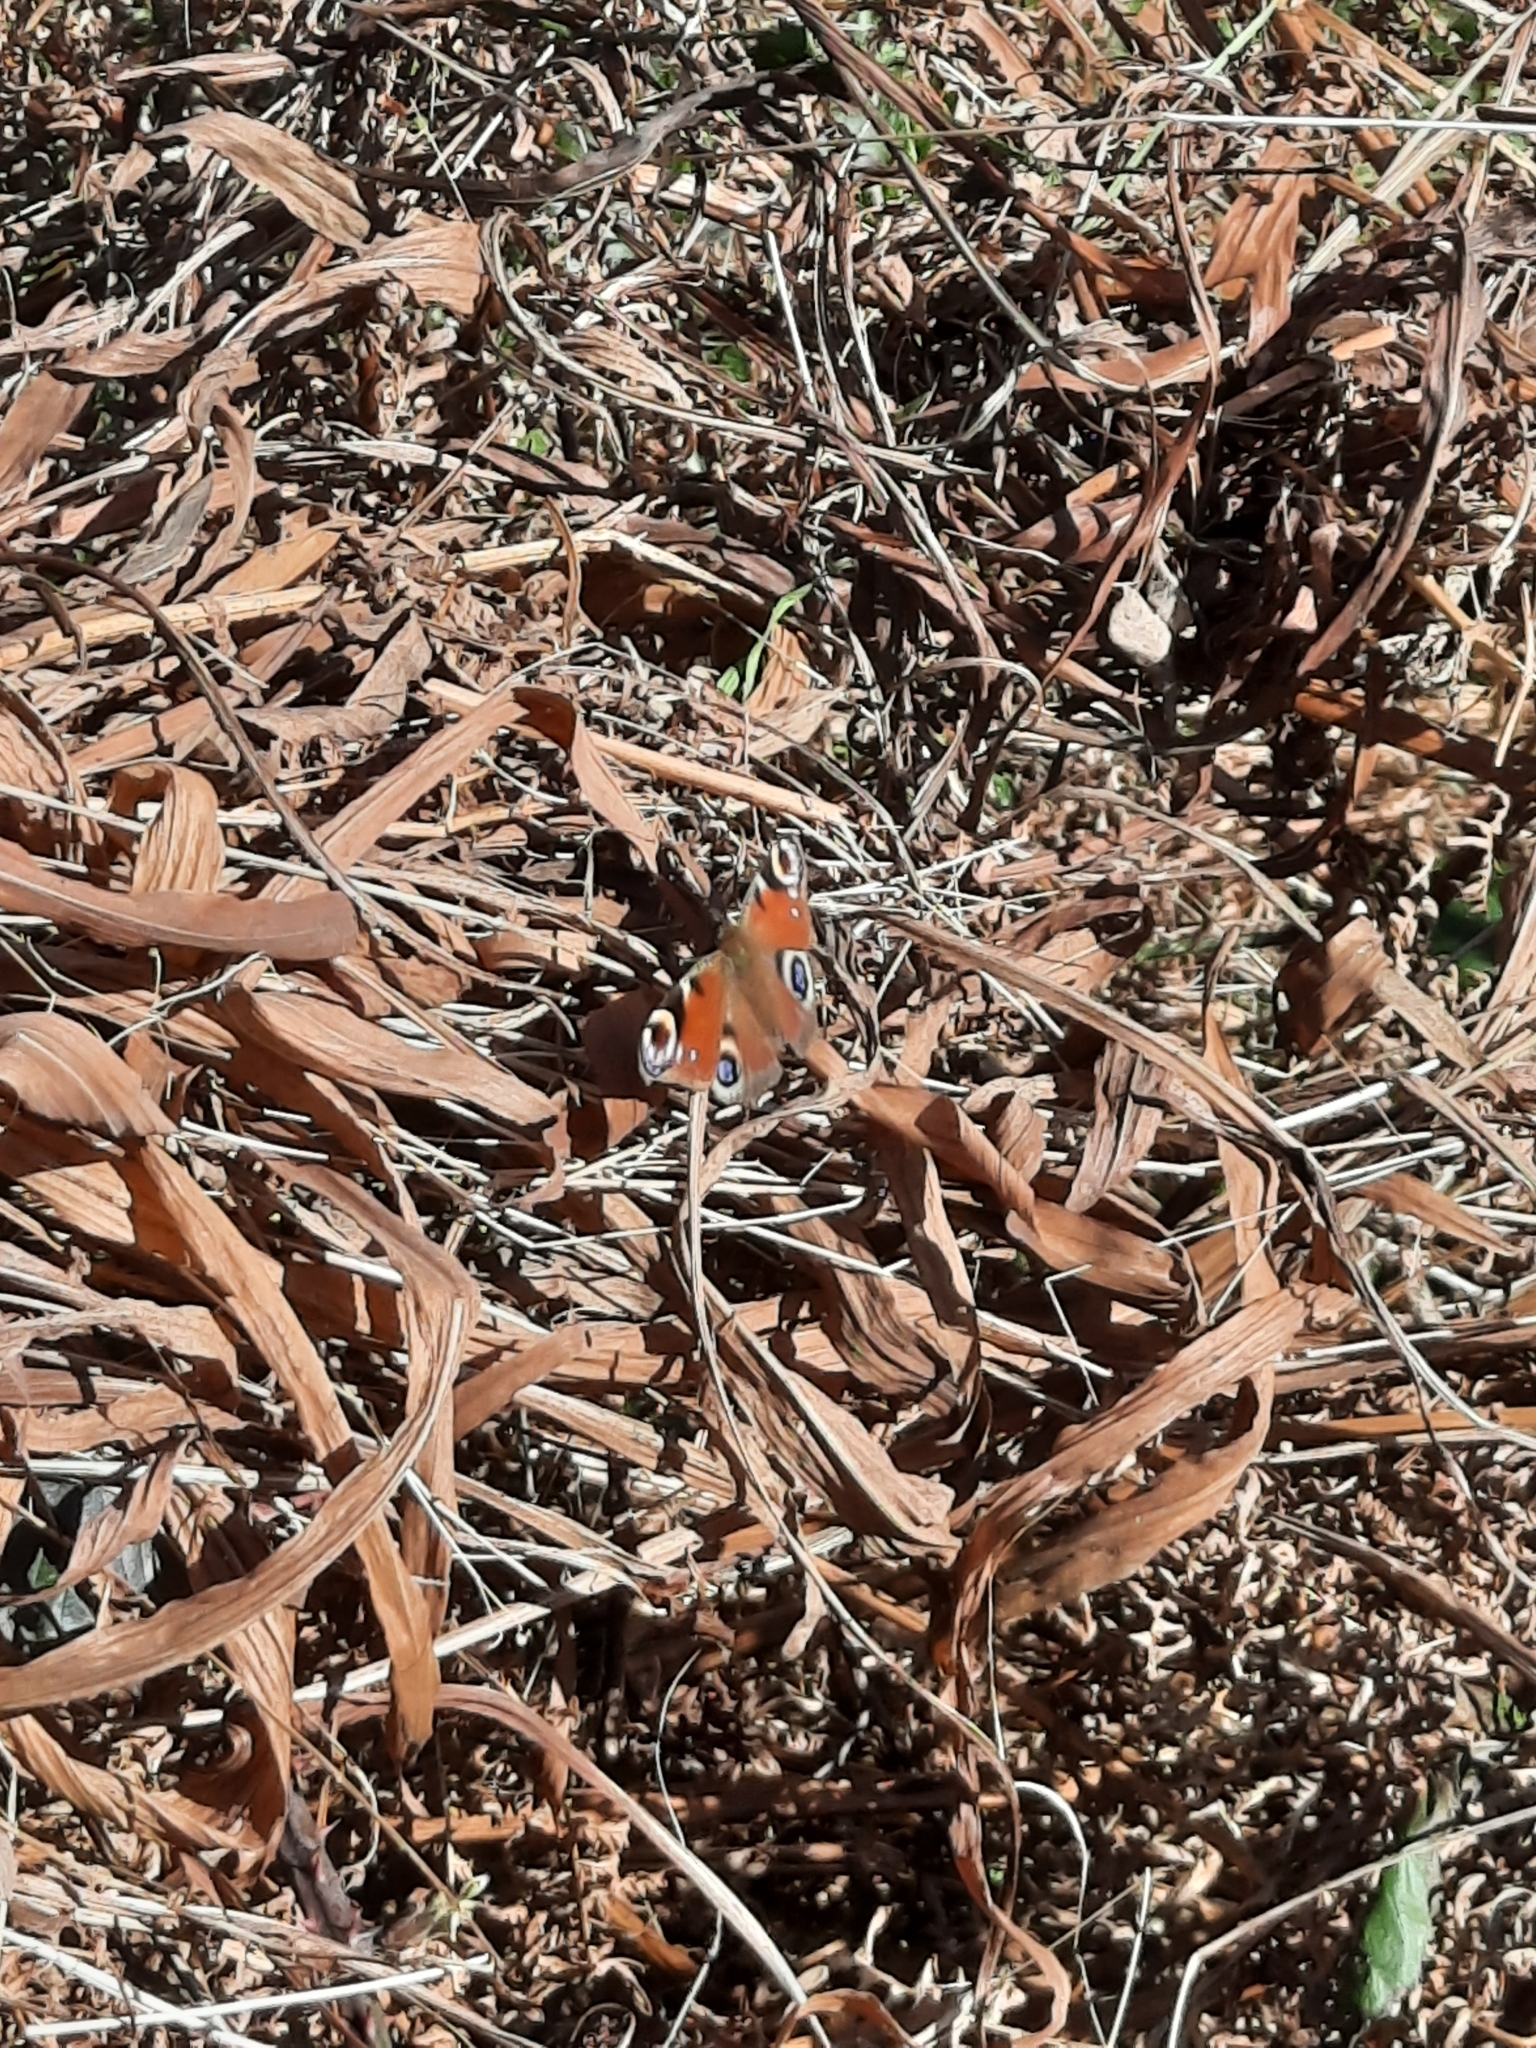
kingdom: Animalia
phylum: Arthropoda
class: Insecta
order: Lepidoptera
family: Nymphalidae
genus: Aglais
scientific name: Aglais io
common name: Peacock
